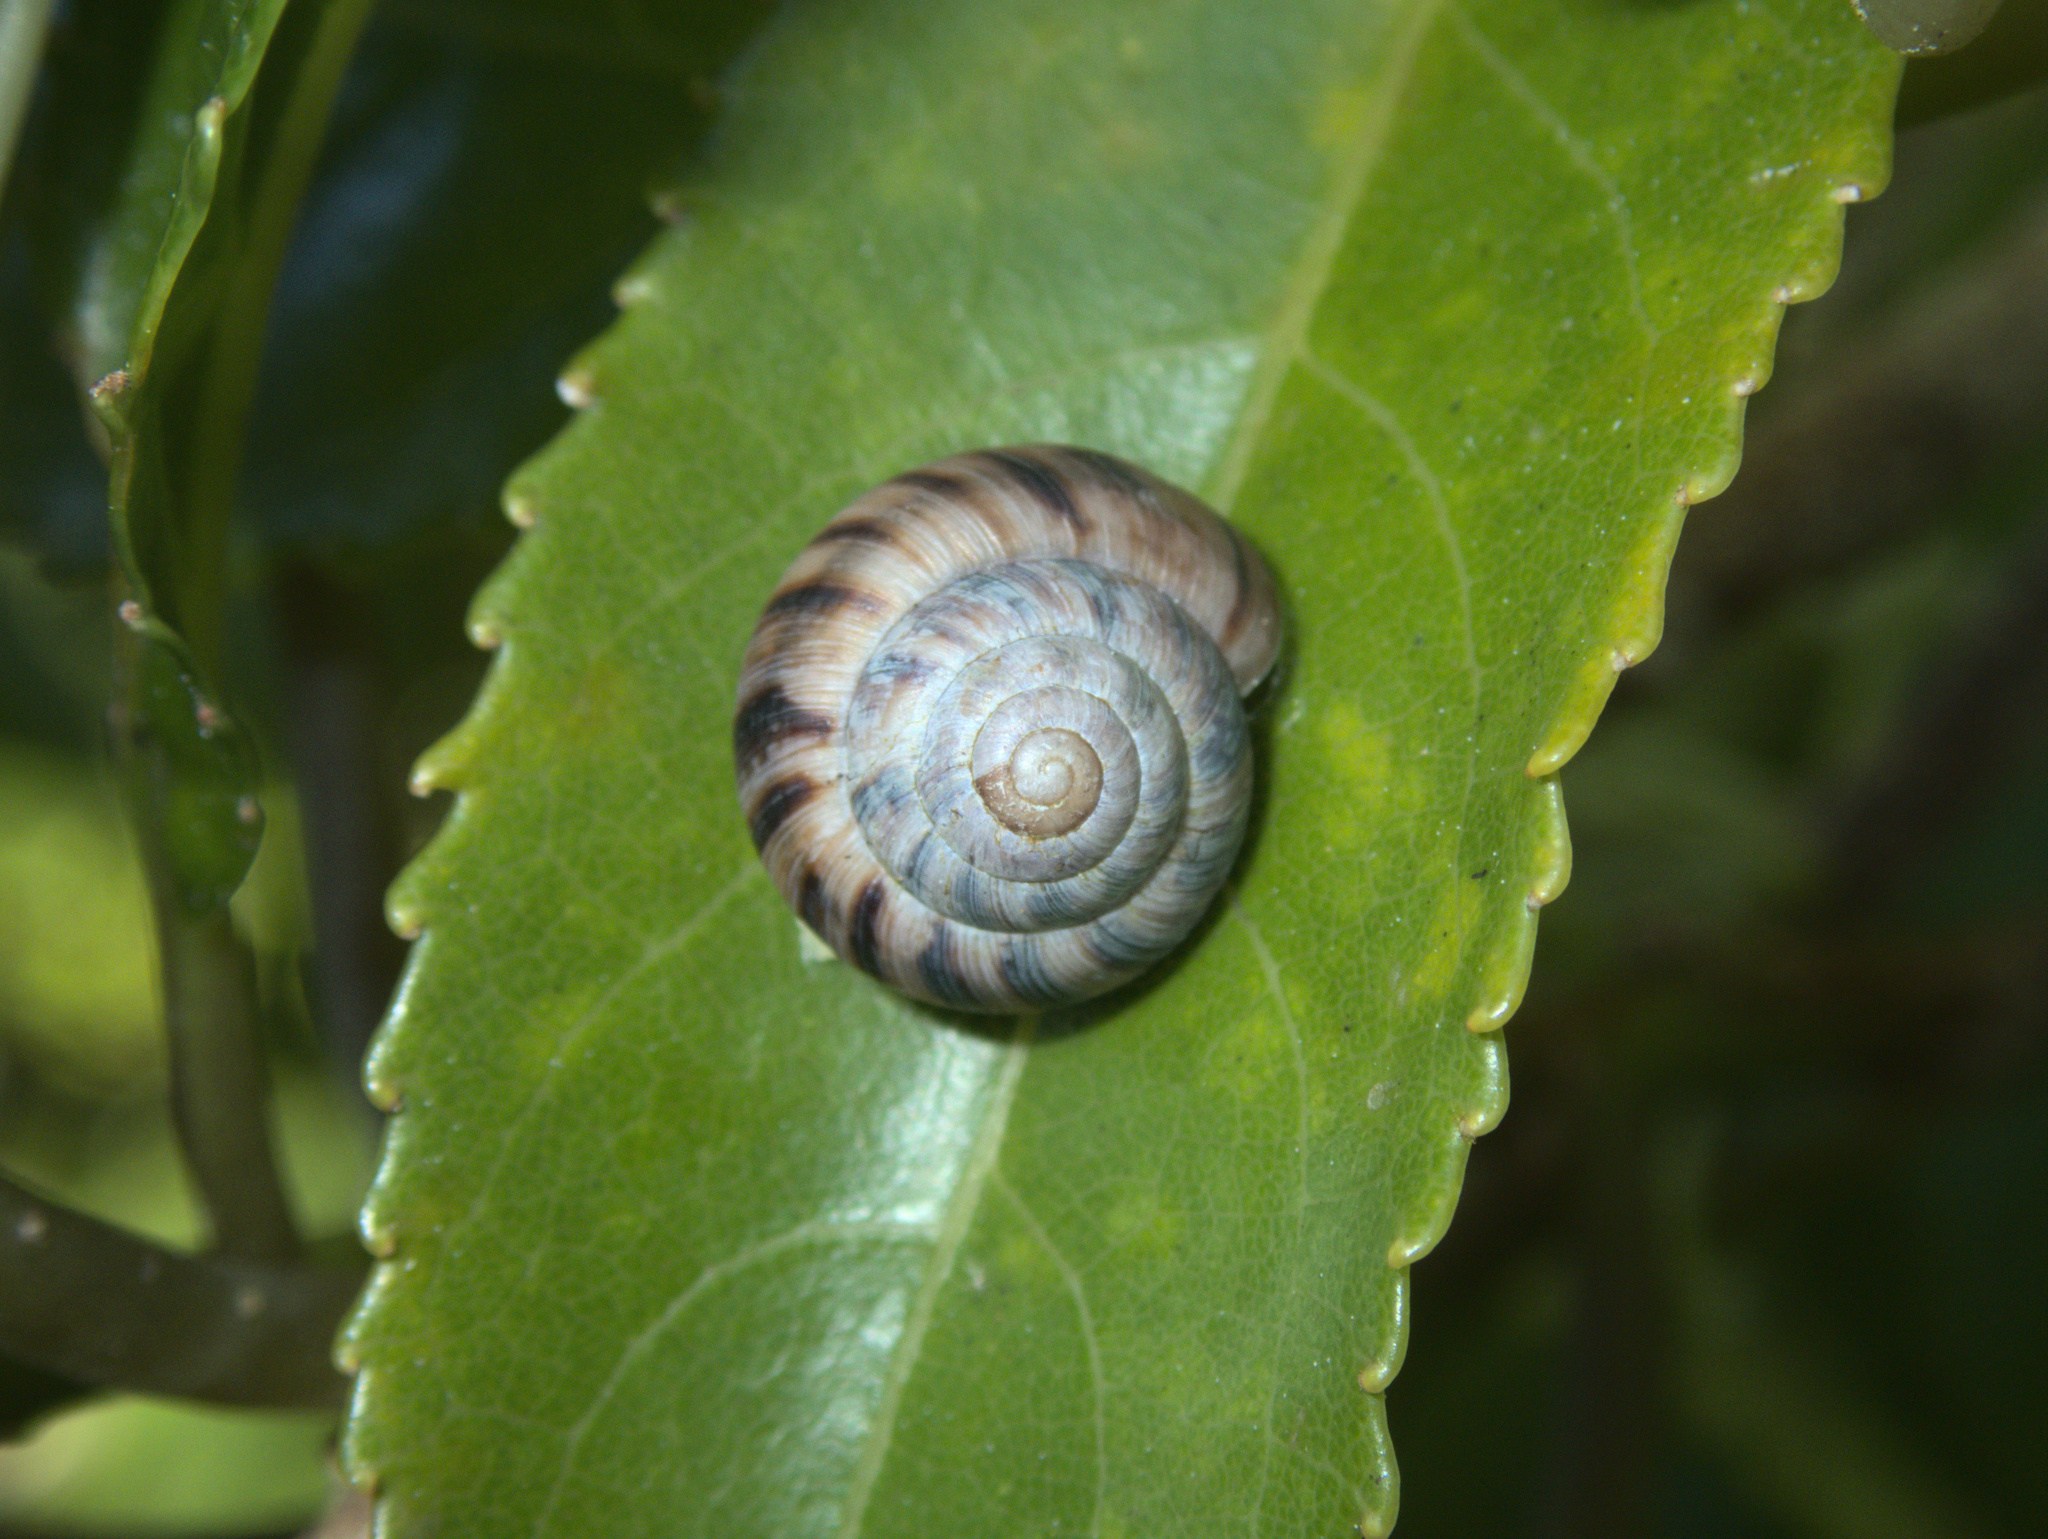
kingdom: Animalia
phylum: Mollusca
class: Gastropoda
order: Stylommatophora
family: Charopidae
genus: Serpho
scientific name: Serpho kivi
